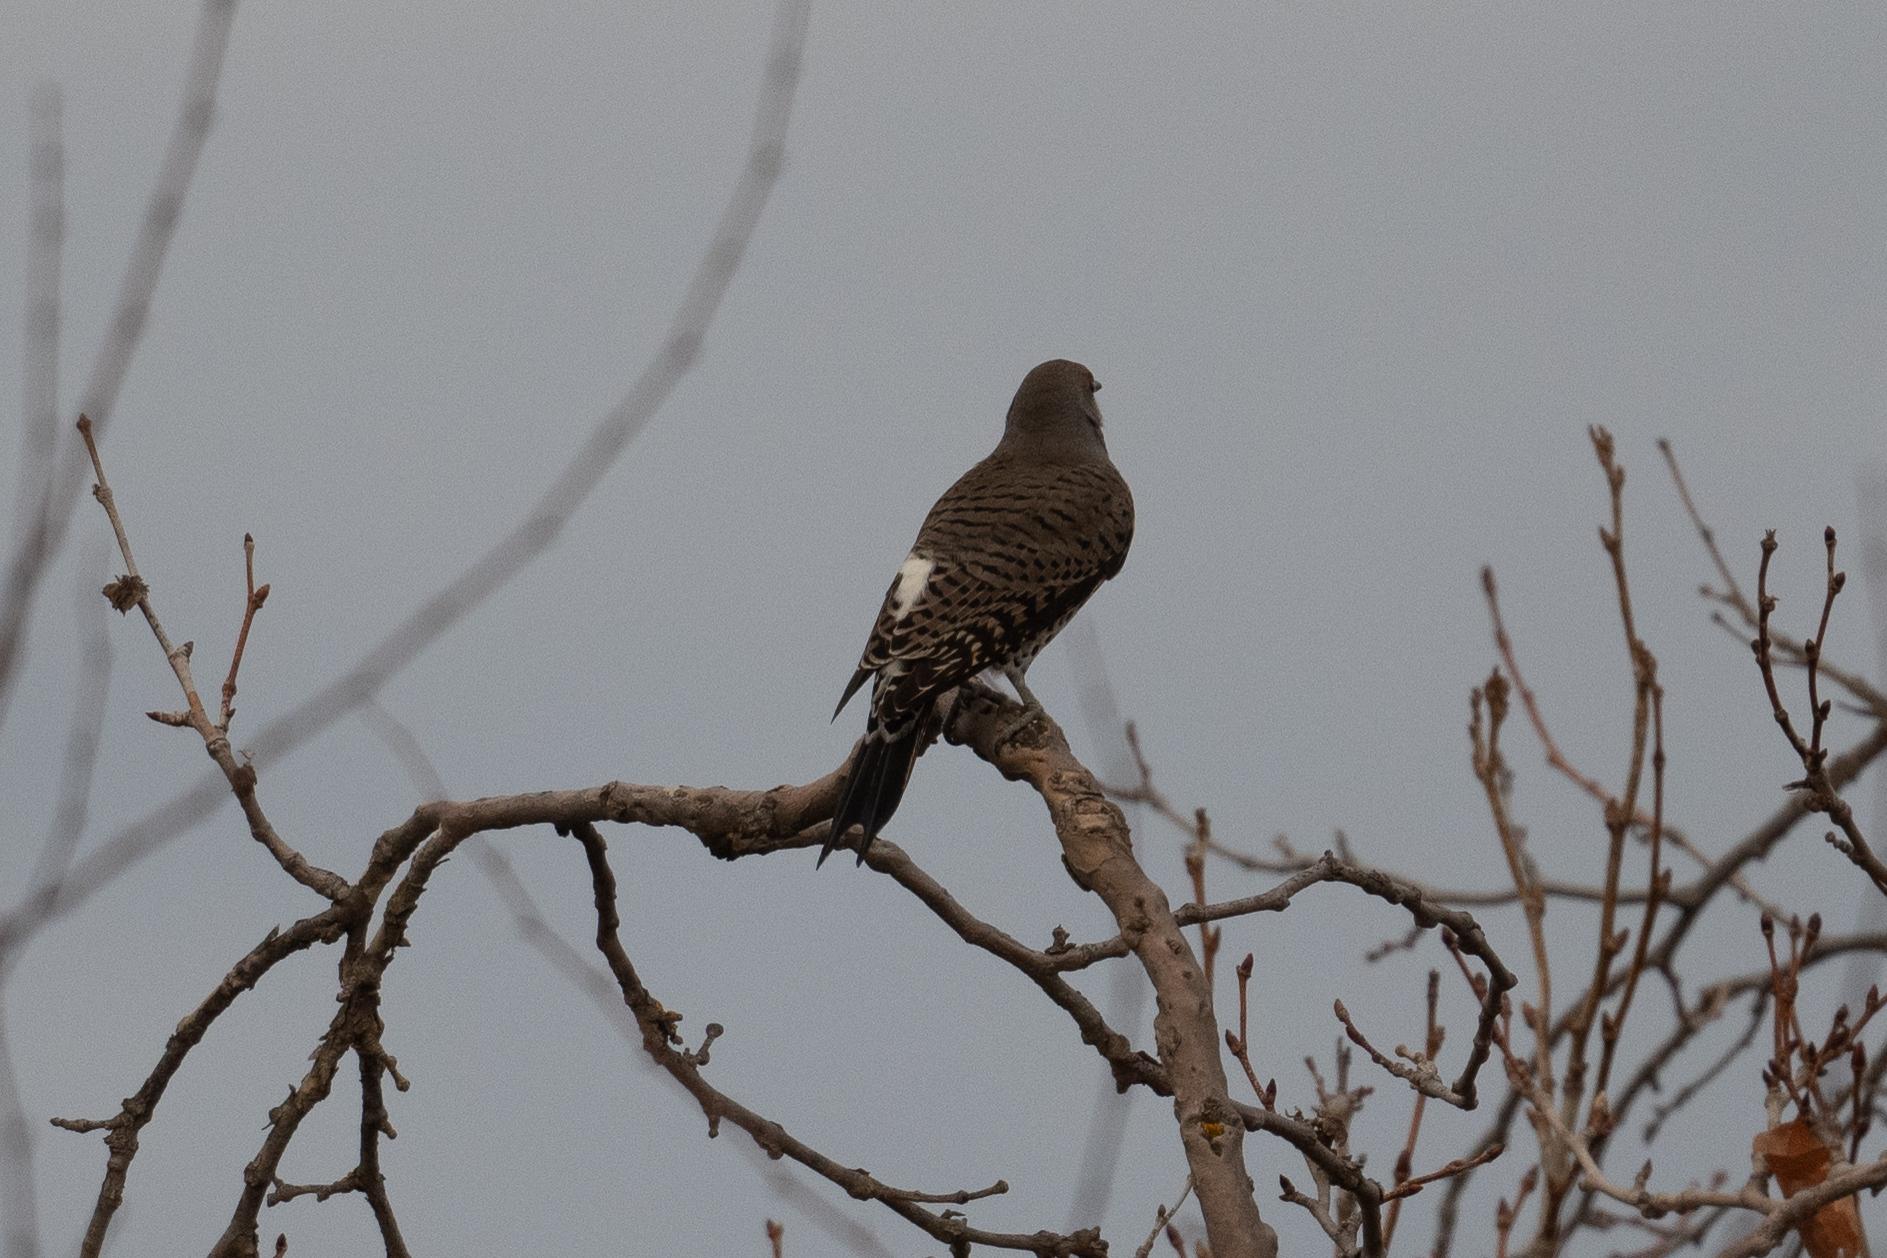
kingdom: Animalia
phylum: Chordata
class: Aves
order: Piciformes
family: Picidae
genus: Colaptes
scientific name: Colaptes auratus
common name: Northern flicker
